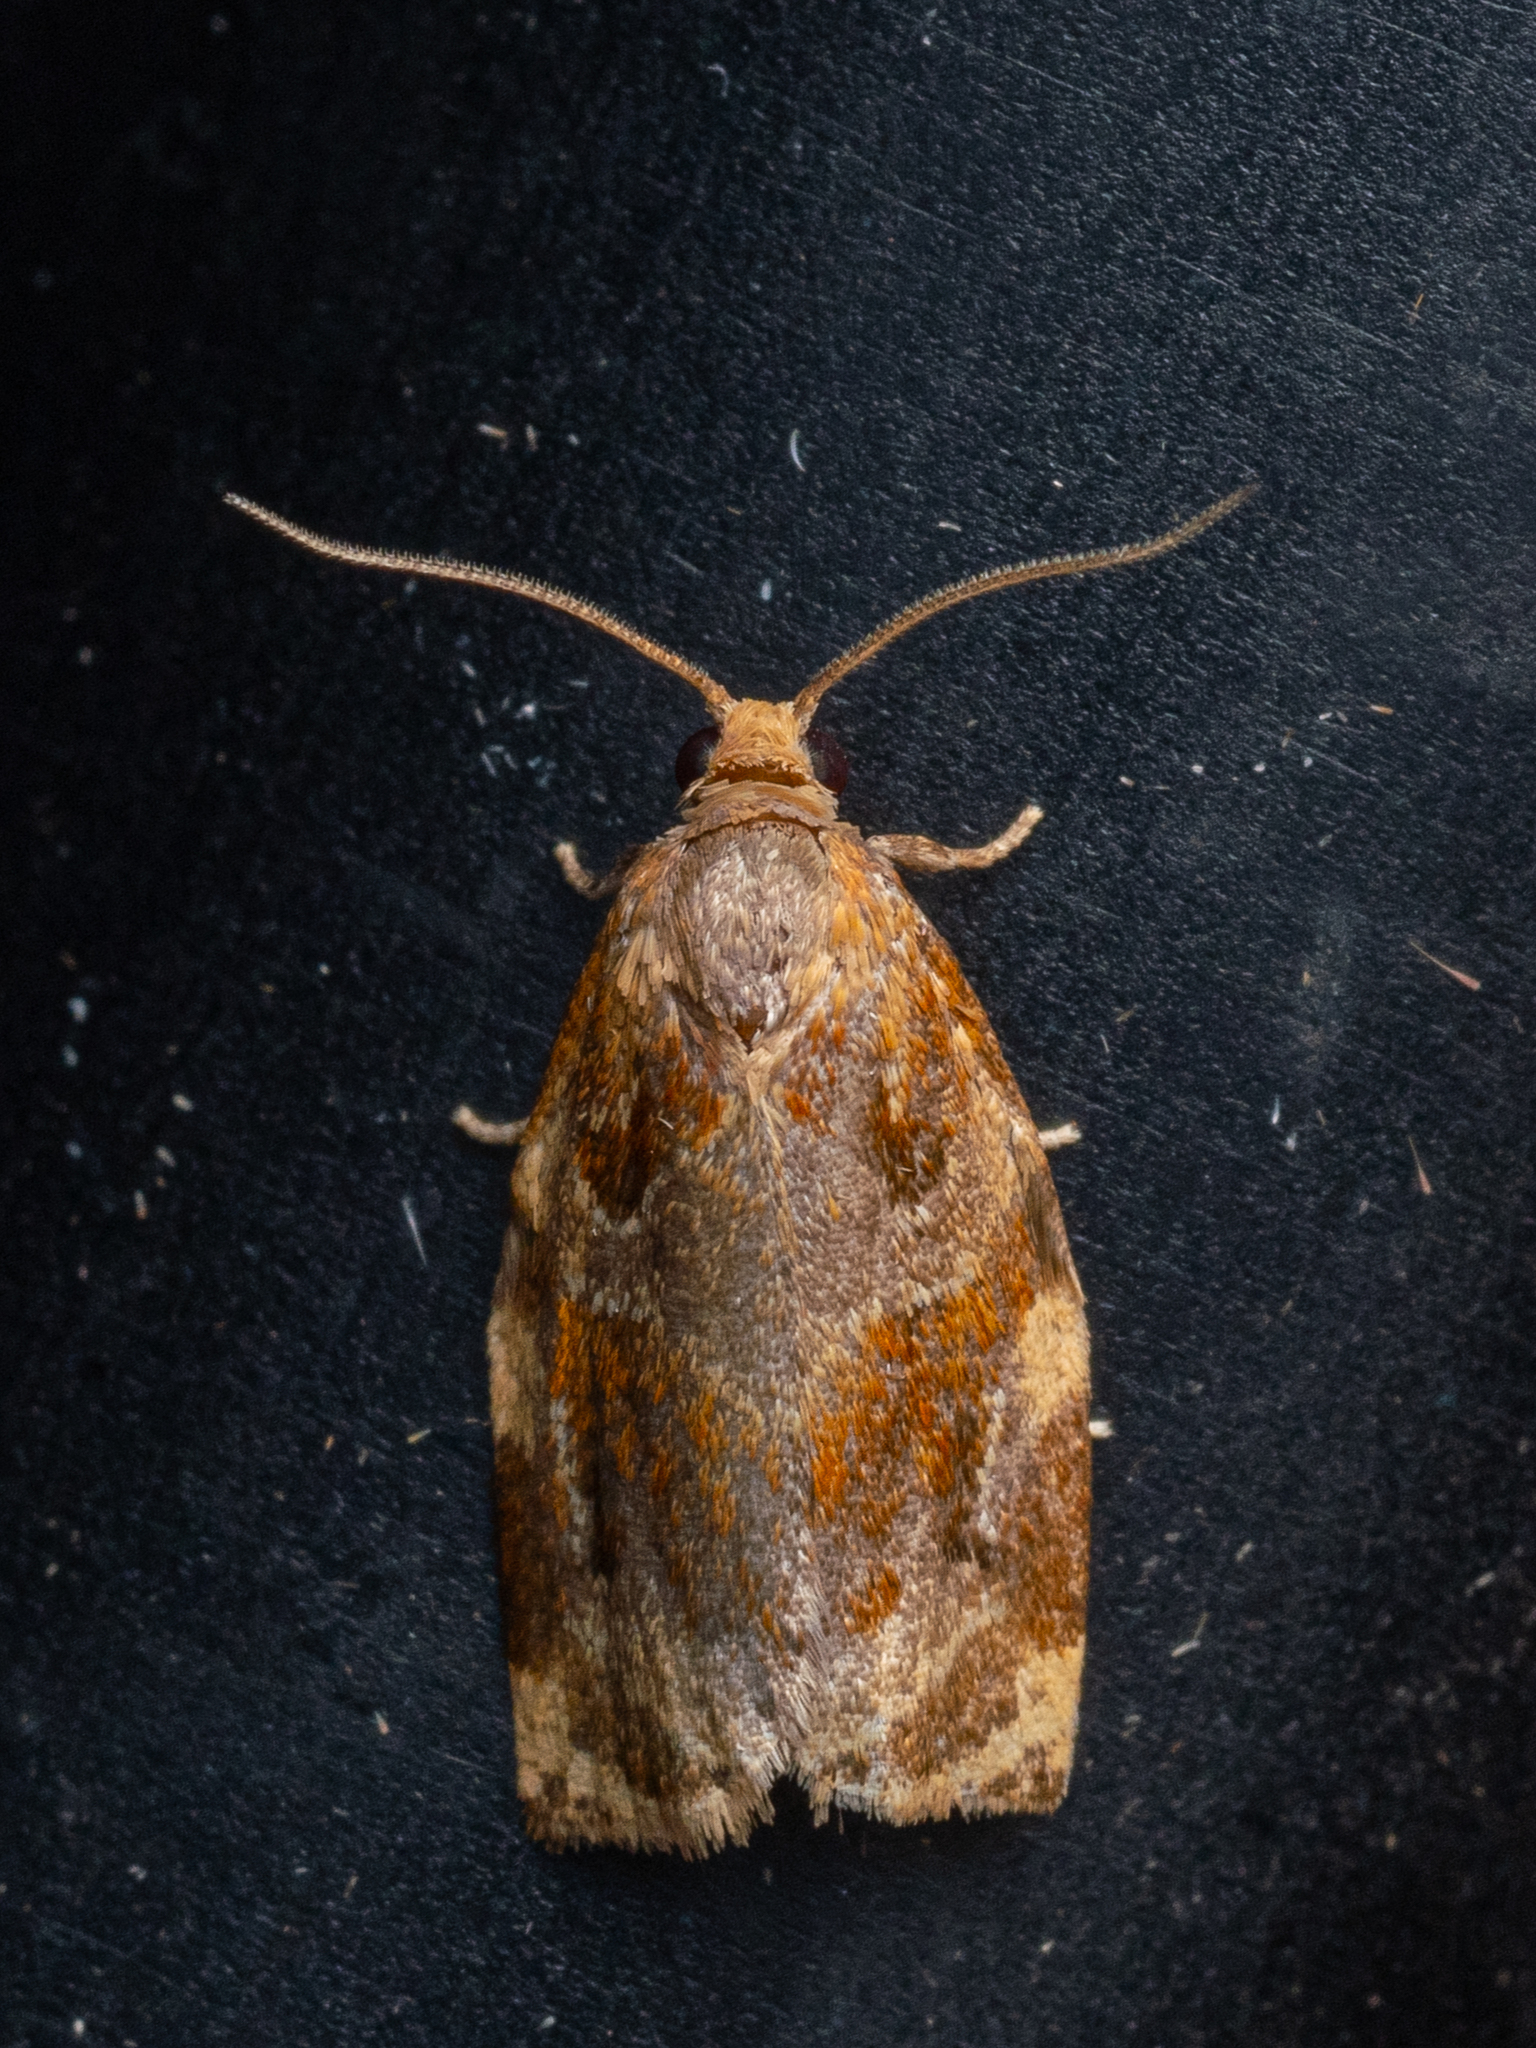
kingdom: Animalia
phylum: Arthropoda
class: Insecta
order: Lepidoptera
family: Tortricidae
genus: Archips
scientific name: Archips xylosteana
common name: Variegated golden tortrix
